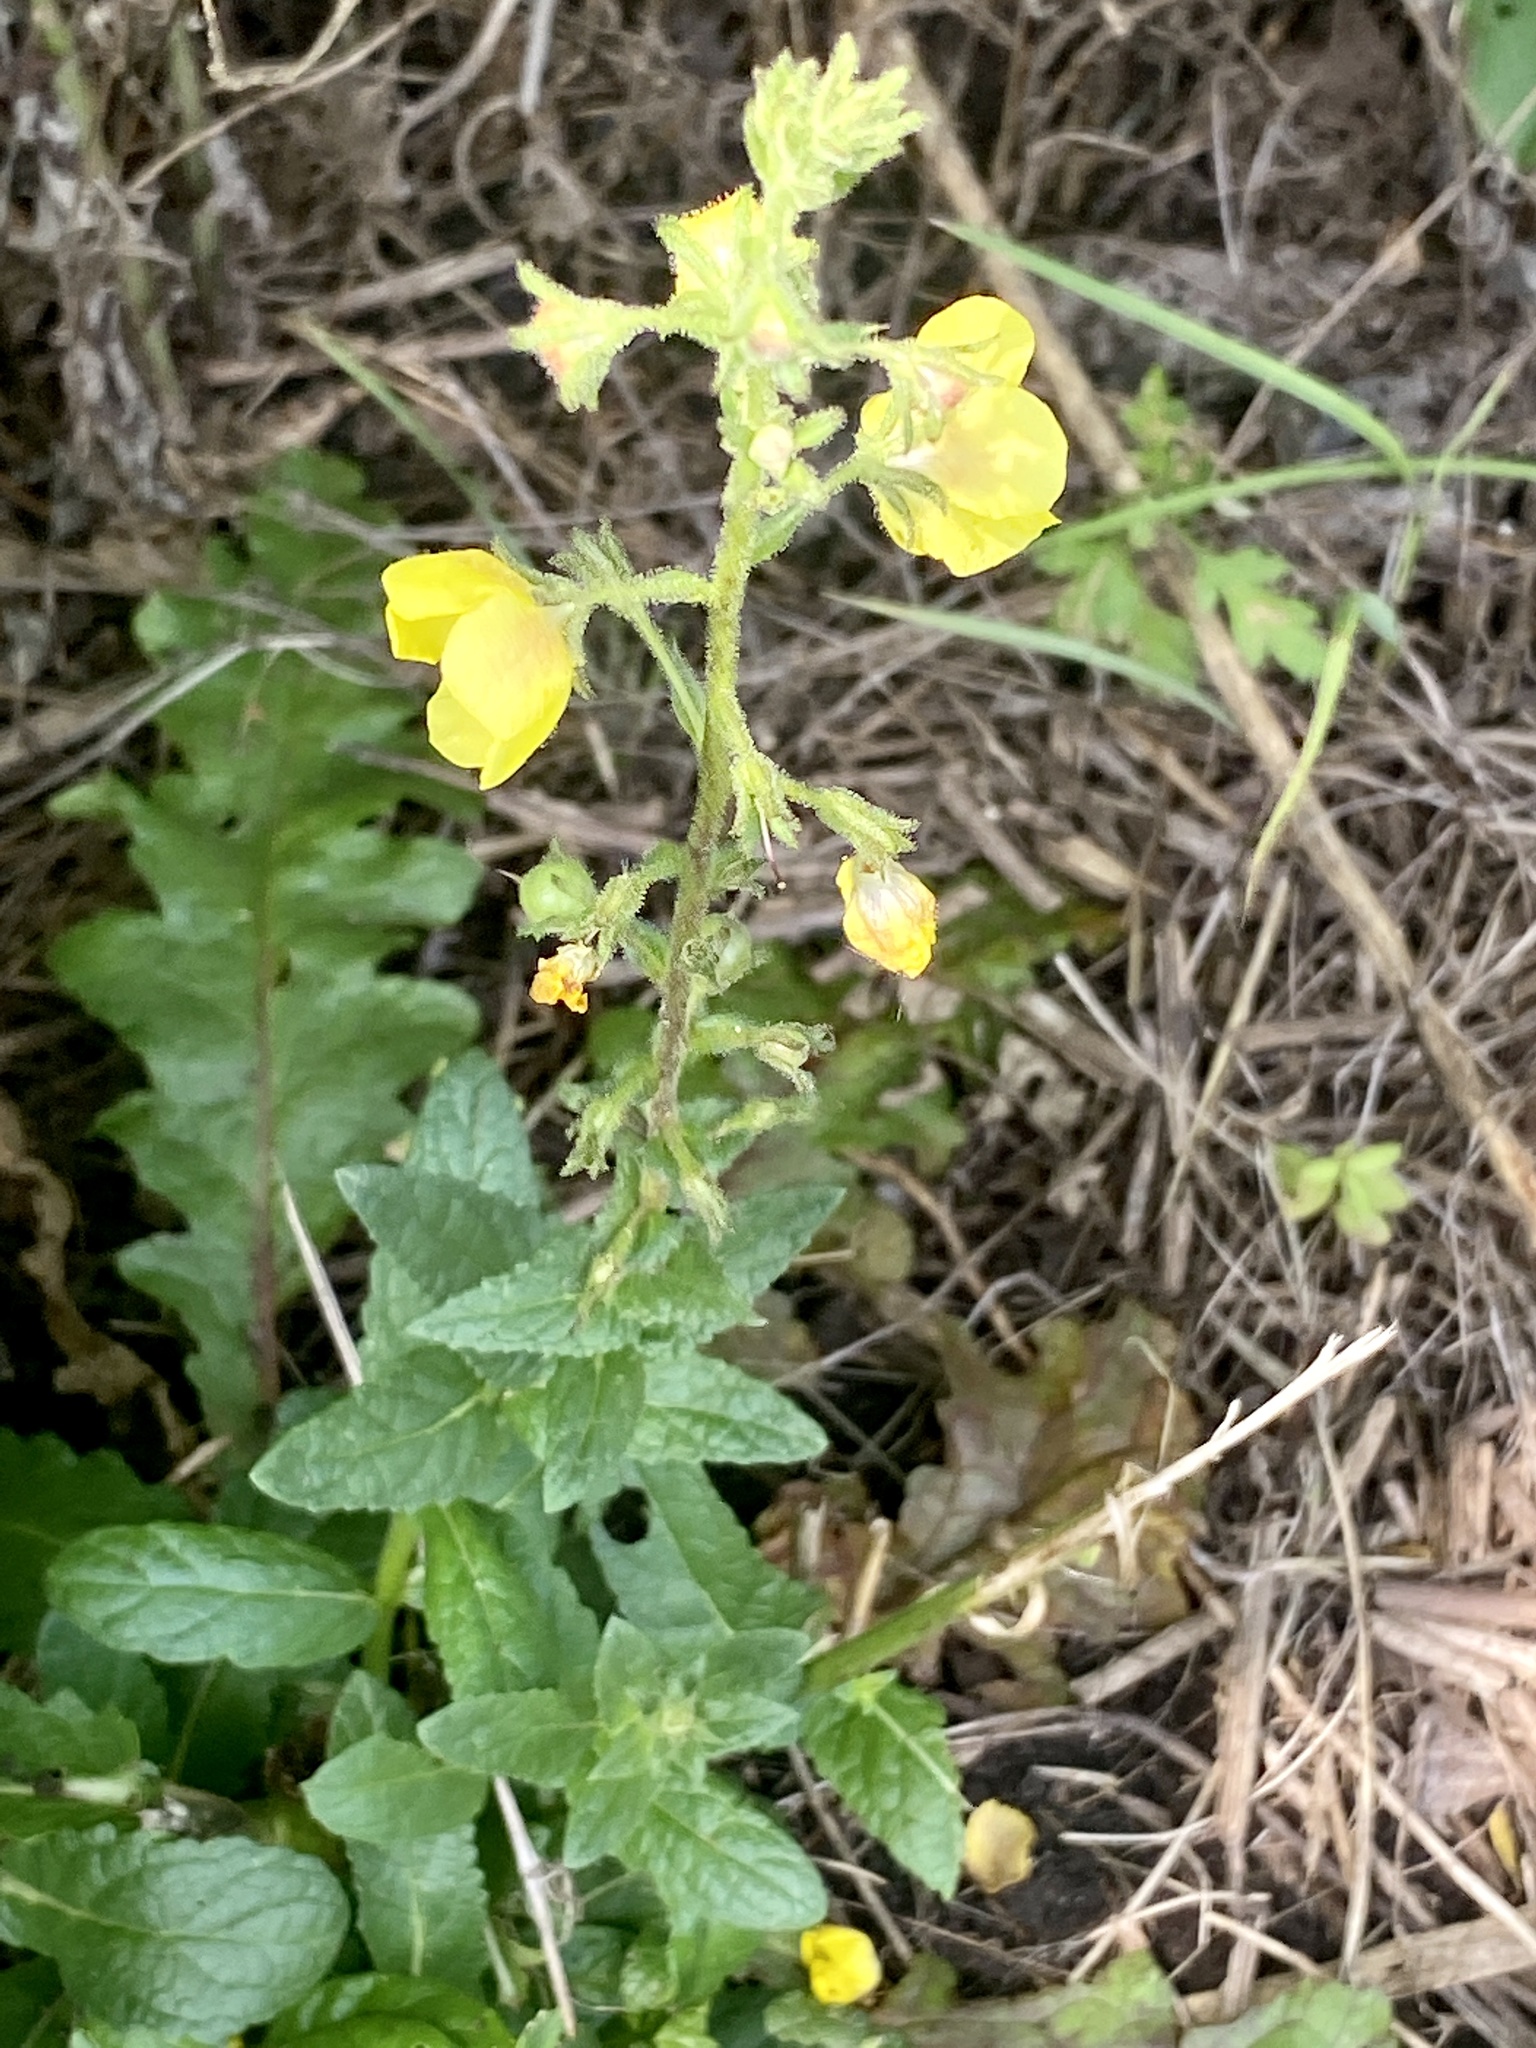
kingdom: Plantae
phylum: Tracheophyta
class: Magnoliopsida
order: Lamiales
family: Scrophulariaceae
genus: Verbascum
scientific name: Verbascum blattaria
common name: Moth mullein
